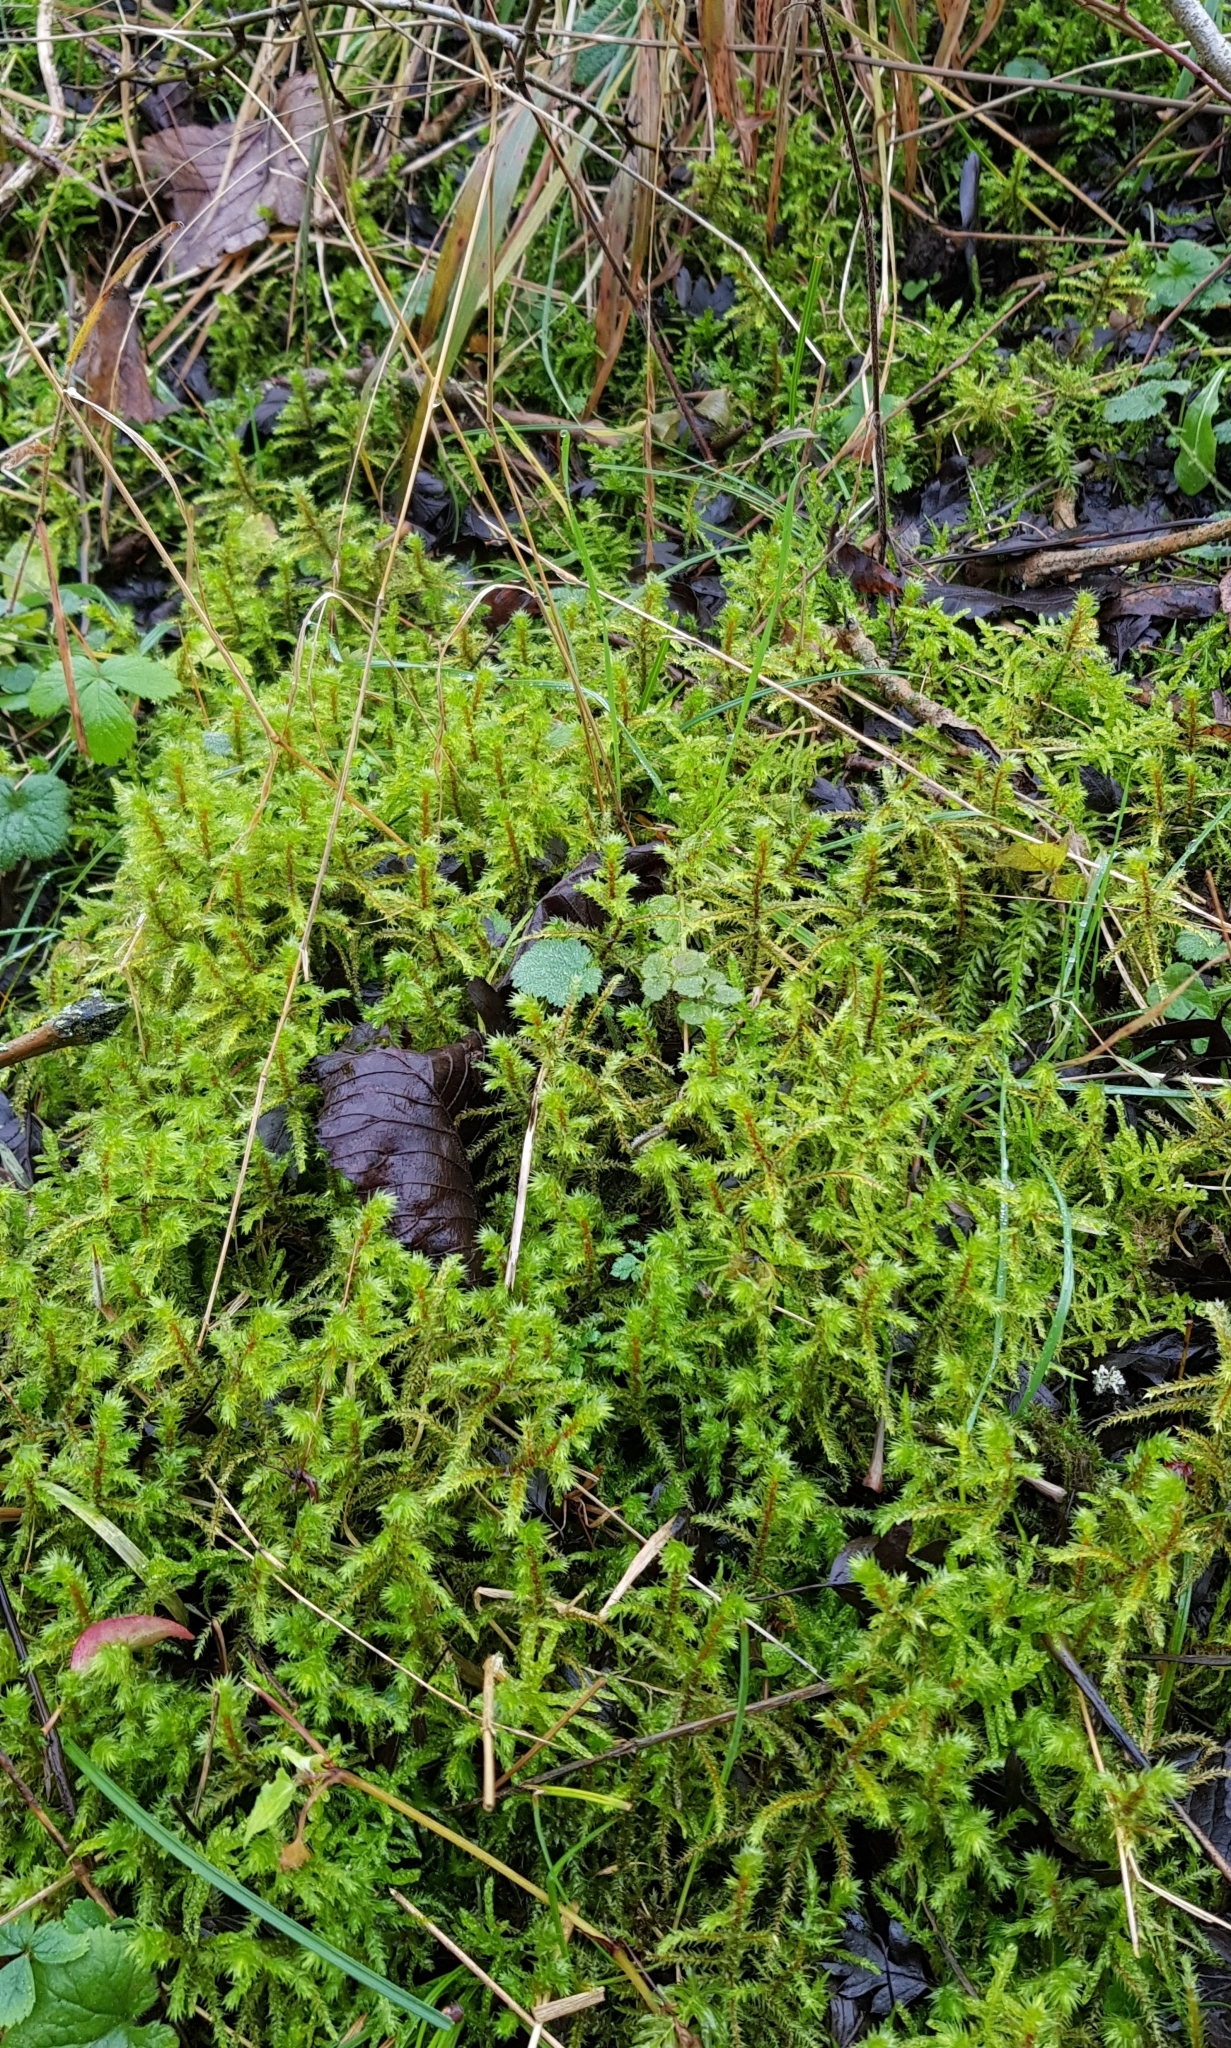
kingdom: Plantae
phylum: Bryophyta
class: Bryopsida
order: Hypnales
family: Hylocomiaceae
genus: Hylocomiadelphus
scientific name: Hylocomiadelphus triquetrus
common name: Rough goose neck moss
